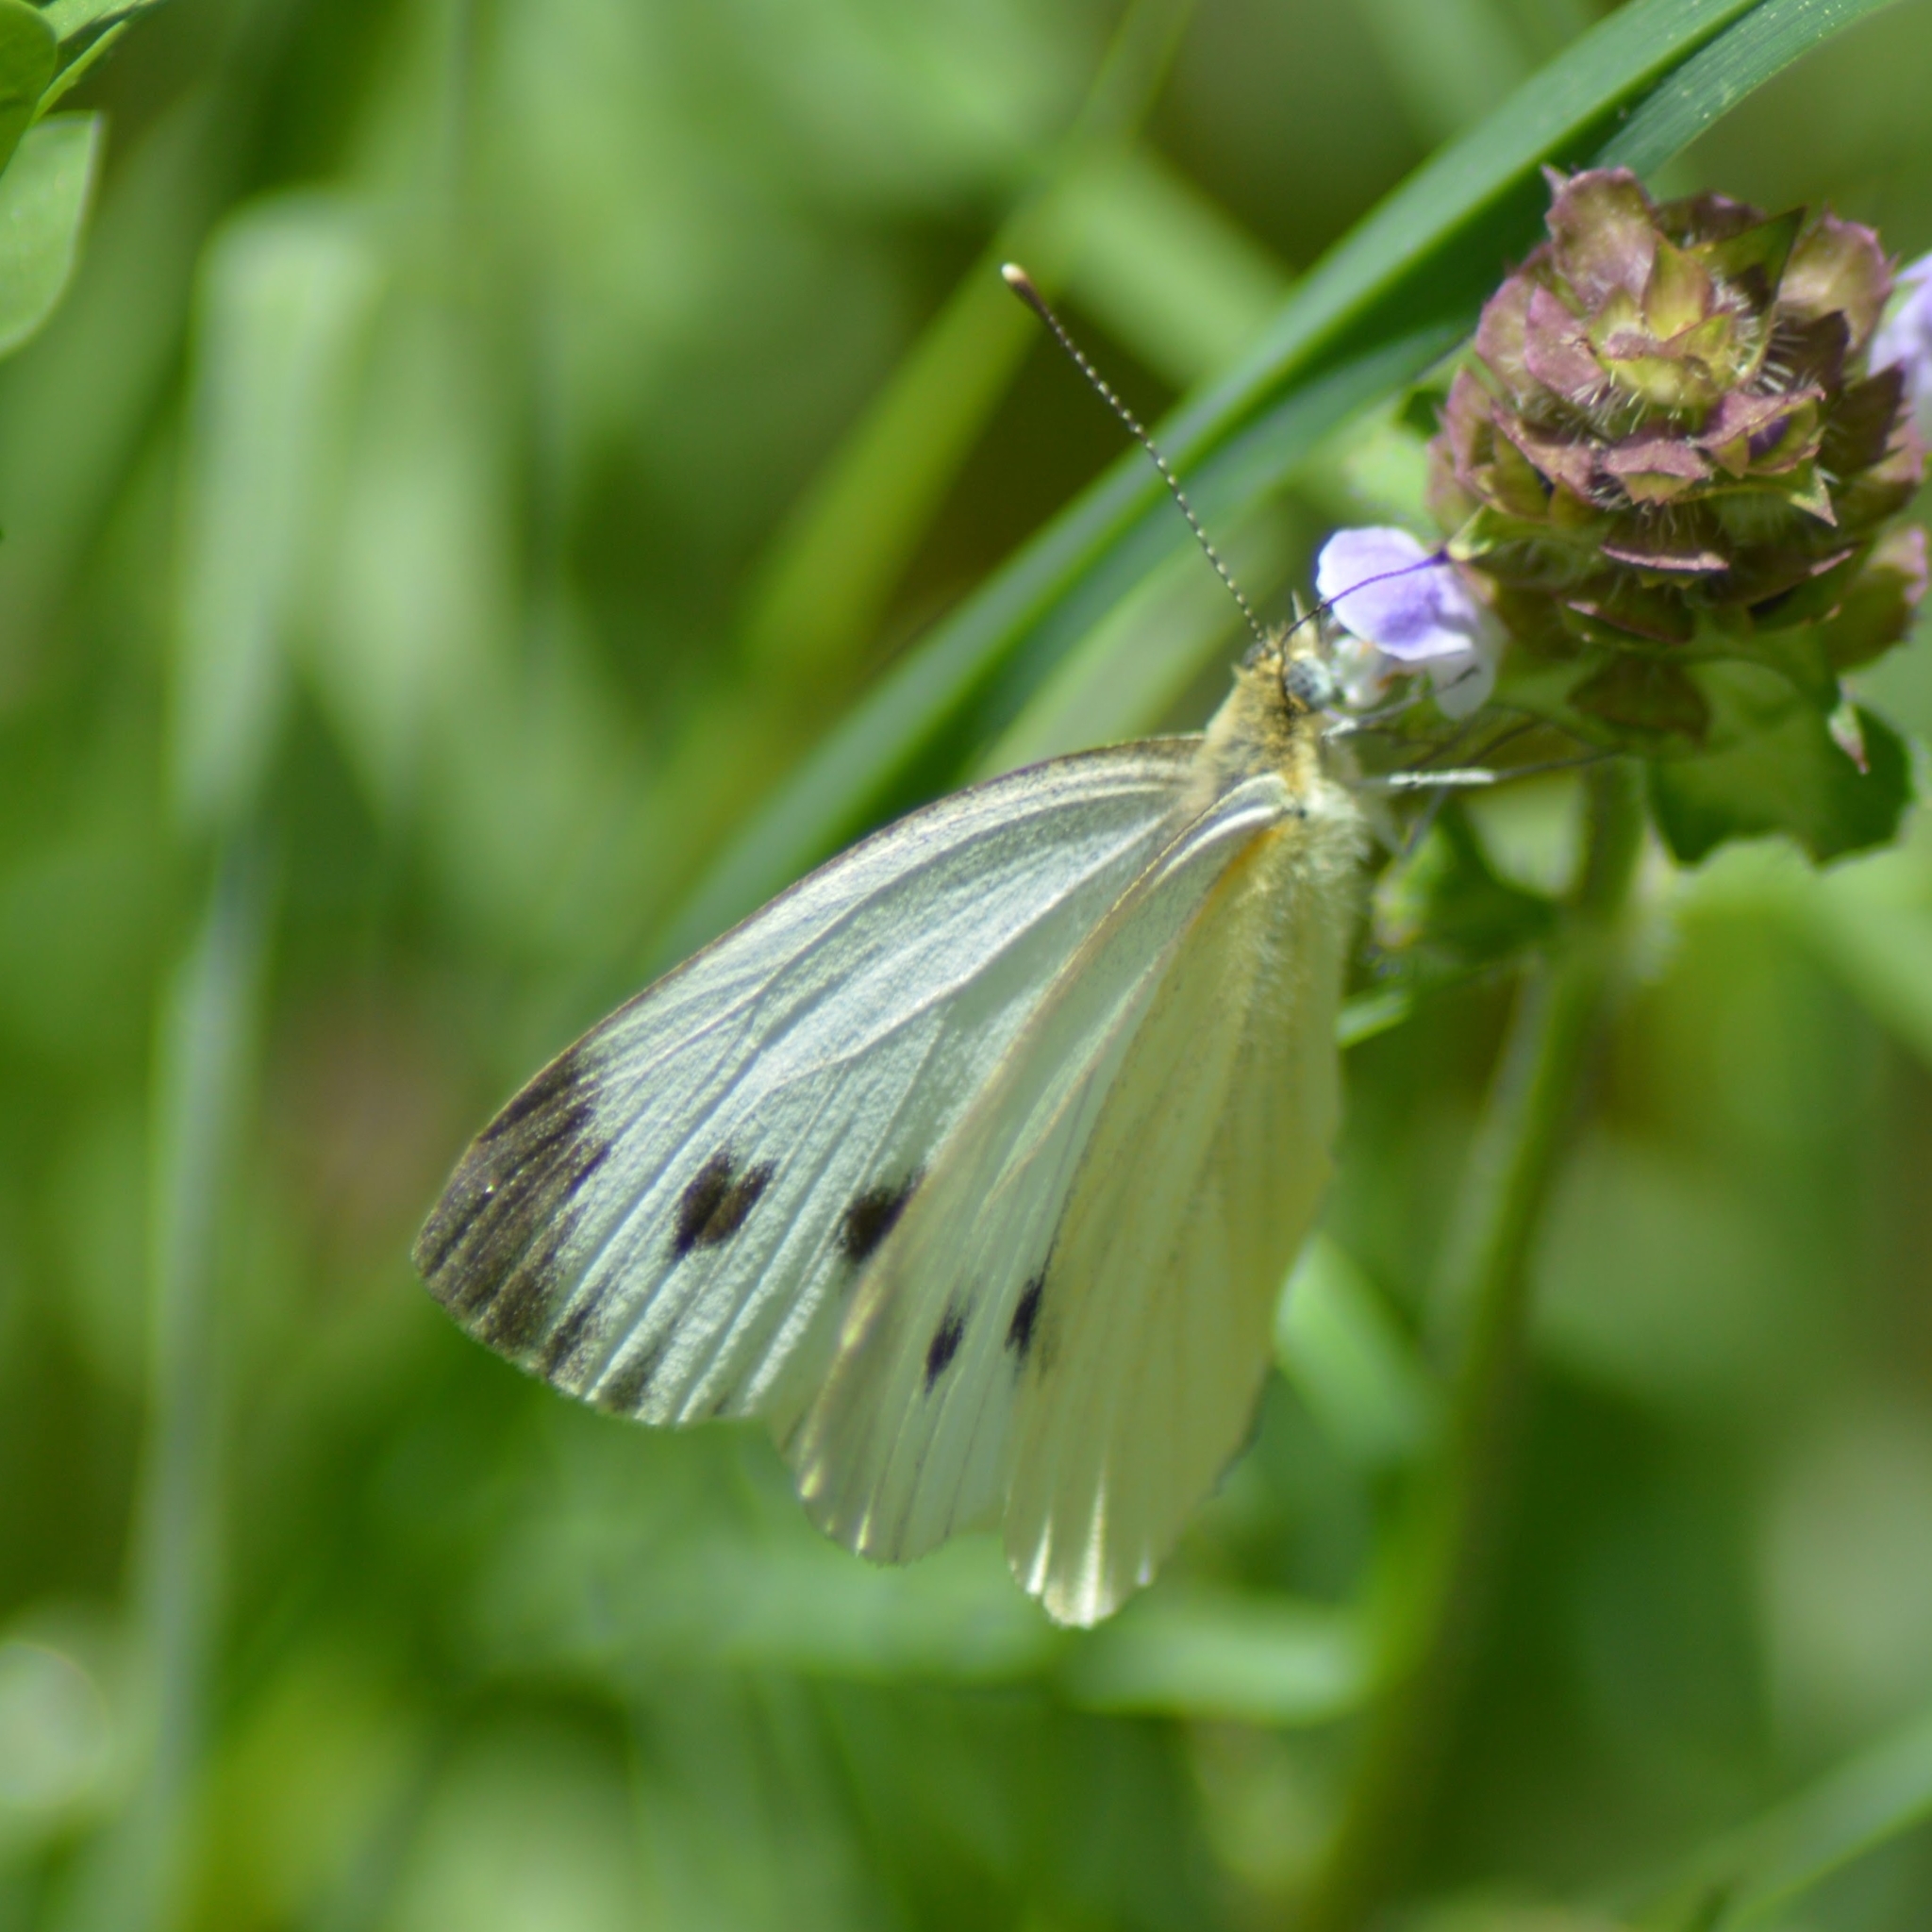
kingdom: Animalia
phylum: Arthropoda
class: Insecta
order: Lepidoptera
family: Pieridae
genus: Pieris
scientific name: Pieris napi
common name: Green-veined white
